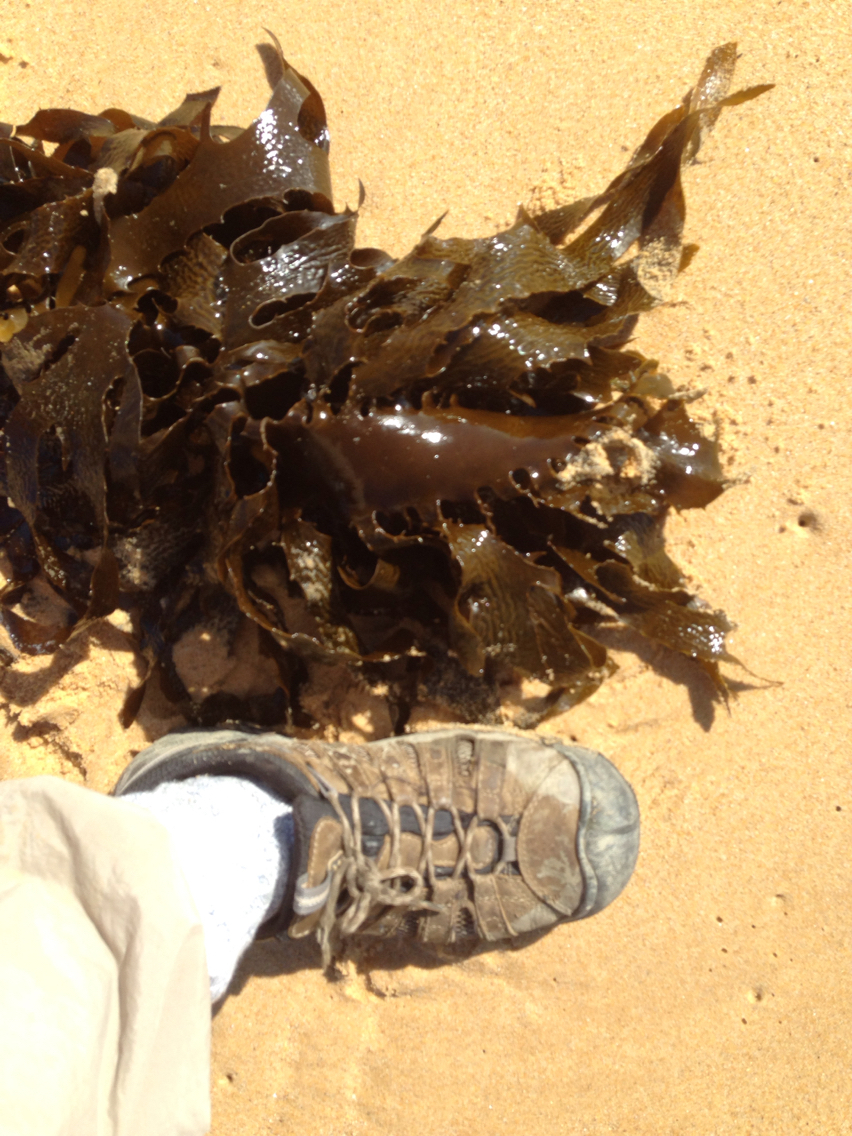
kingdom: Chromista
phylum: Ochrophyta
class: Phaeophyceae
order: Laminariales
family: Lessoniaceae
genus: Ecklonia
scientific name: Ecklonia radiata
